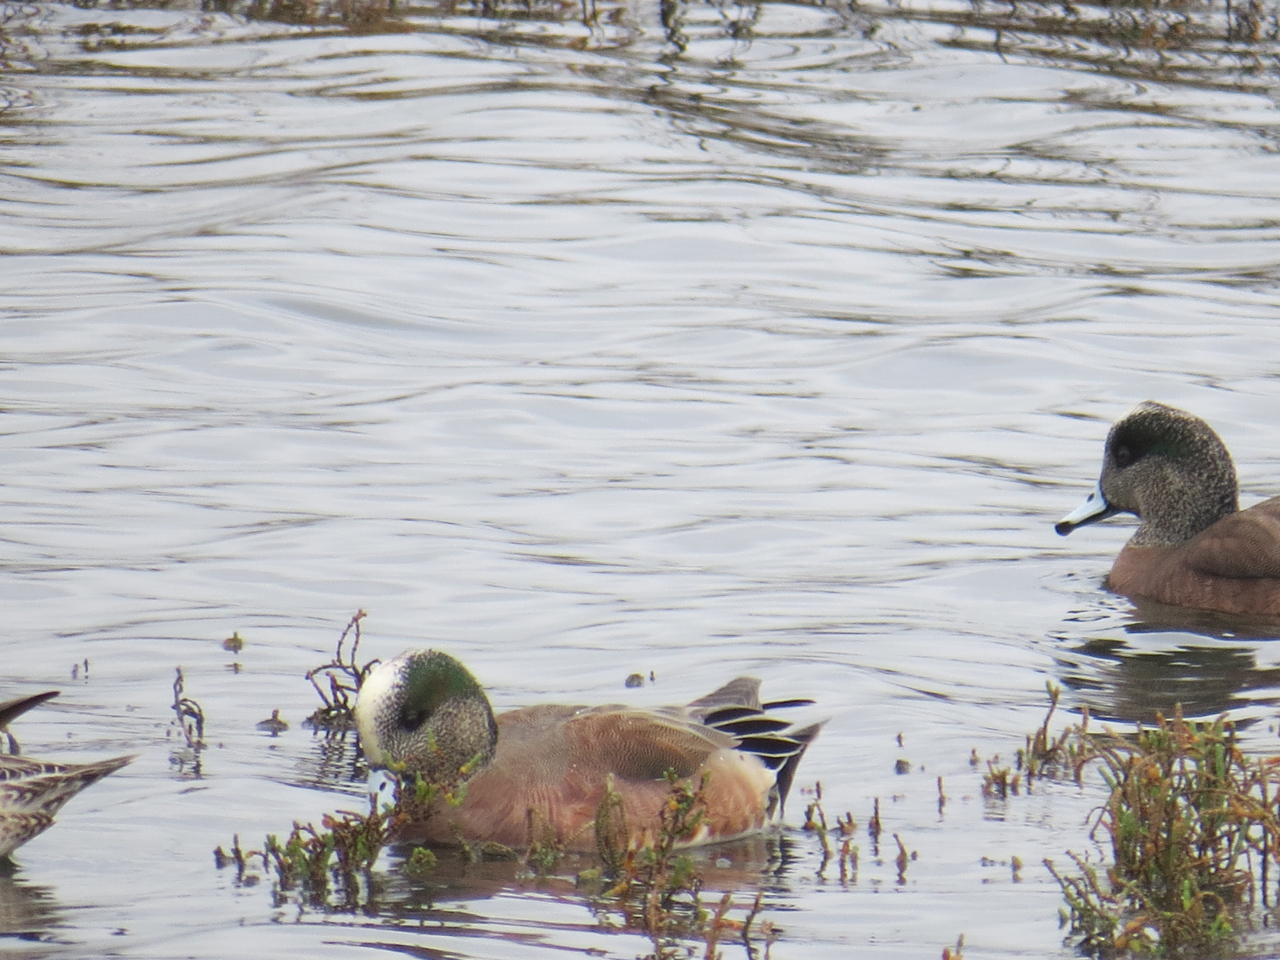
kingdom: Animalia
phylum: Chordata
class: Aves
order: Anseriformes
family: Anatidae
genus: Mareca
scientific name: Mareca americana
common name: American wigeon
